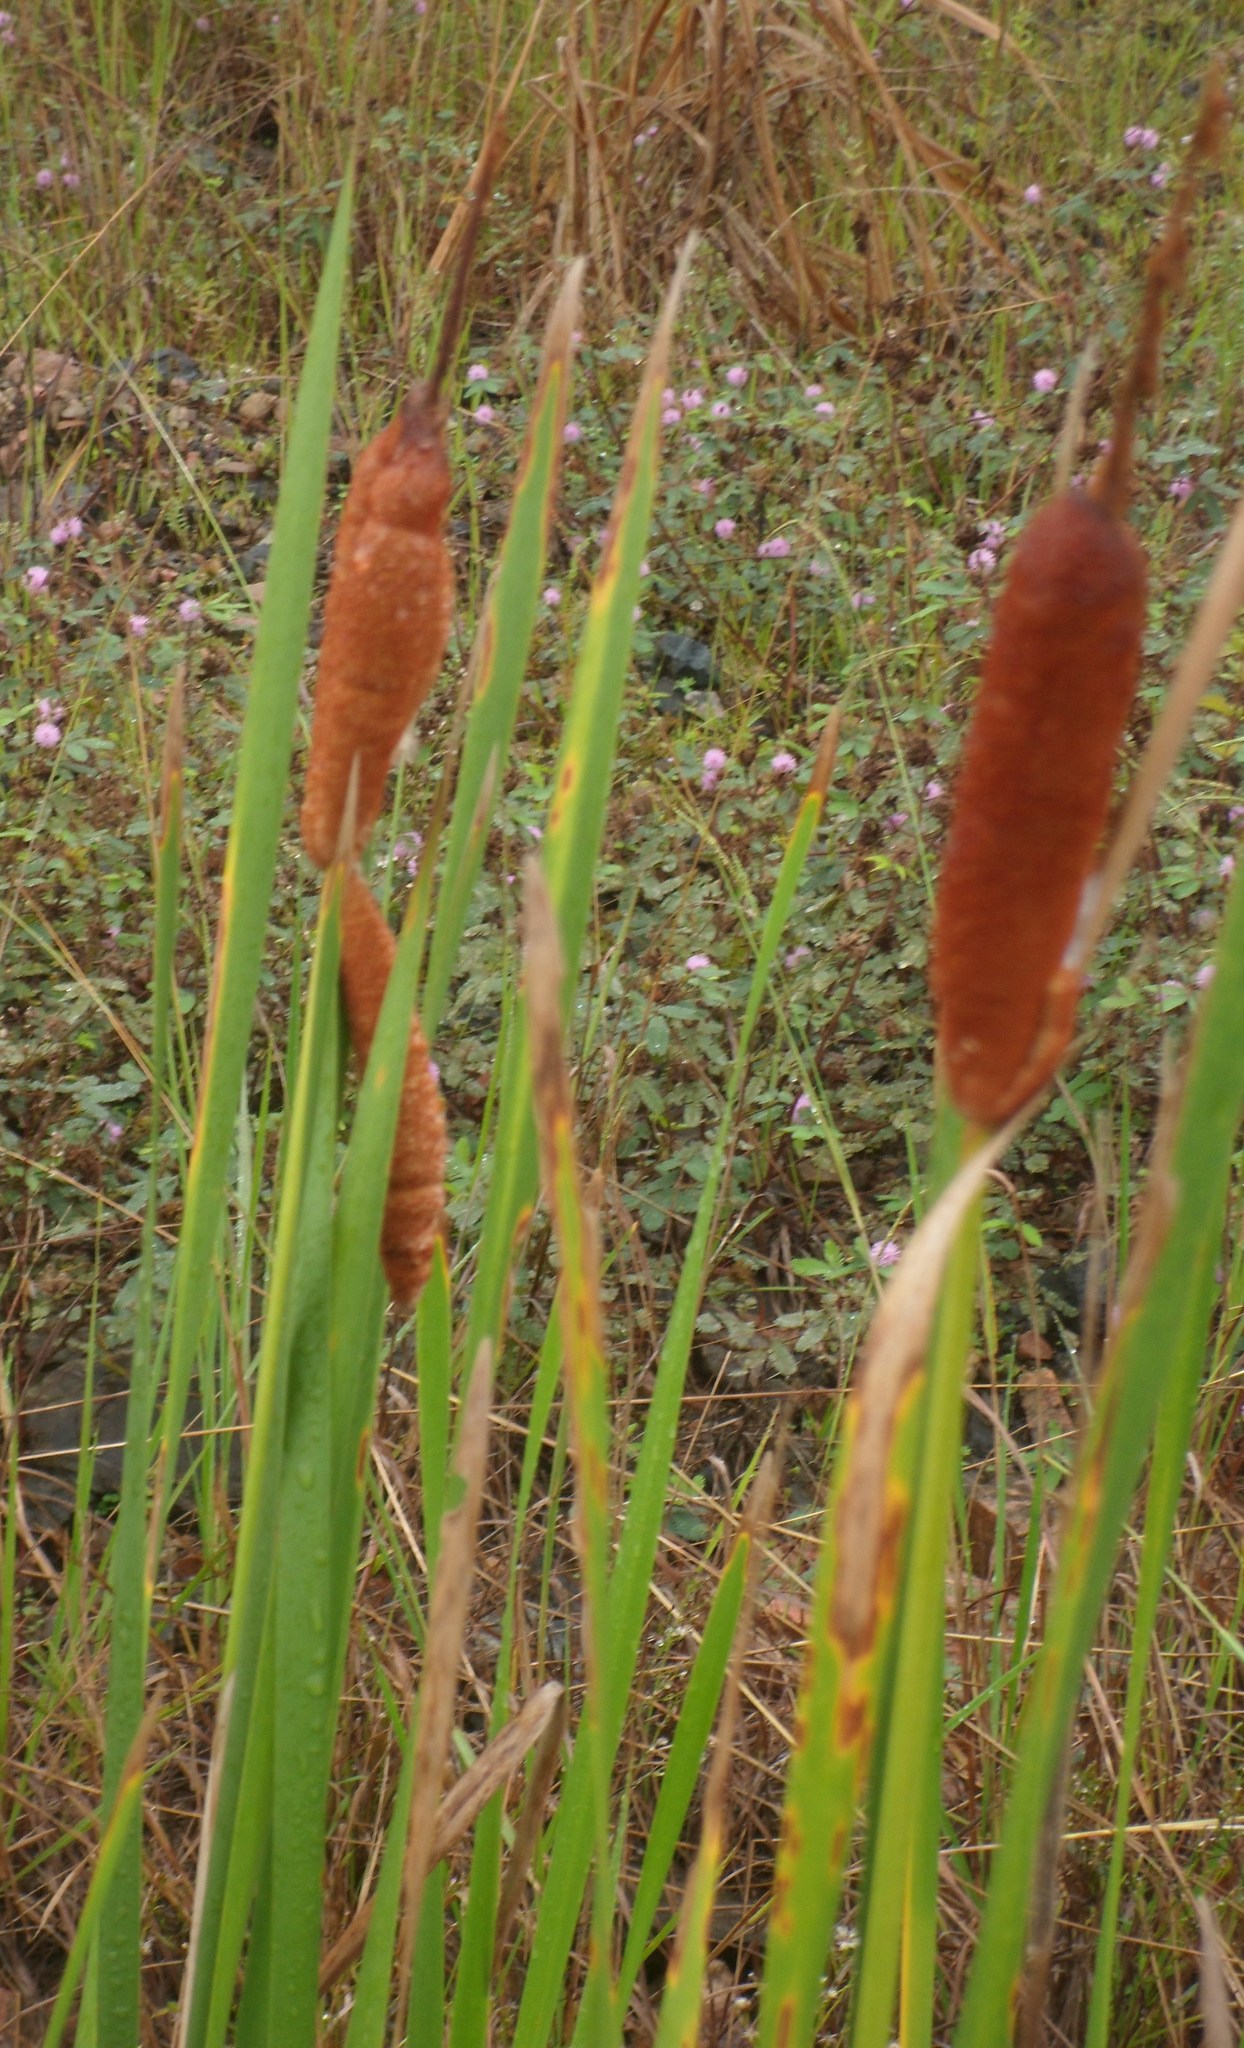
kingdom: Plantae
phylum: Tracheophyta
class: Liliopsida
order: Poales
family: Typhaceae
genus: Typha
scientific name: Typha domingensis
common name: Southern cattail
